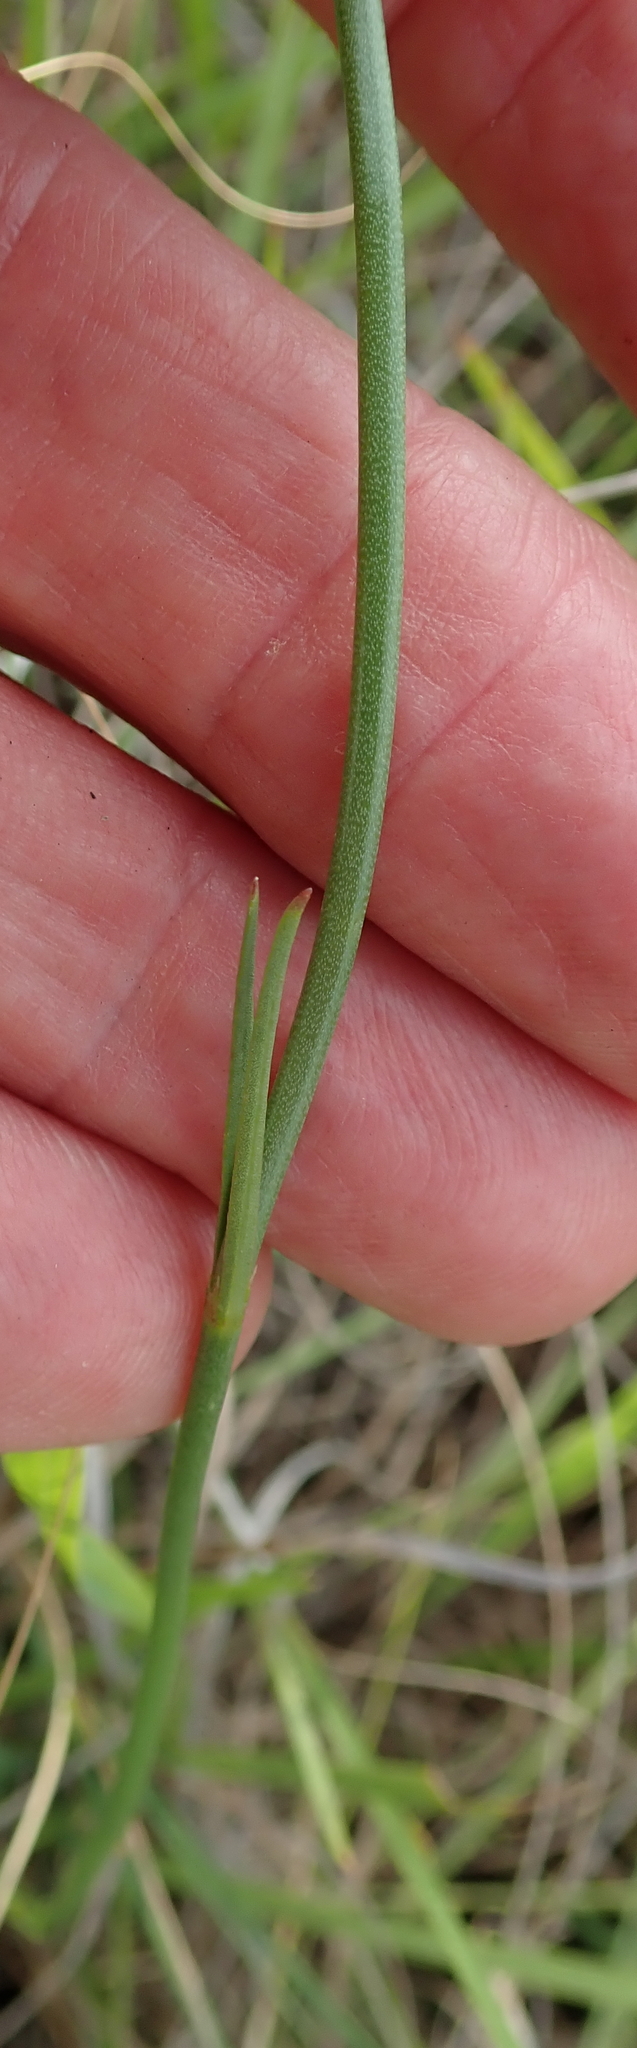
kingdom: Plantae
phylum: Tracheophyta
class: Magnoliopsida
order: Gentianales
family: Rubiaceae
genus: Kohautia
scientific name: Kohautia amatymbica
